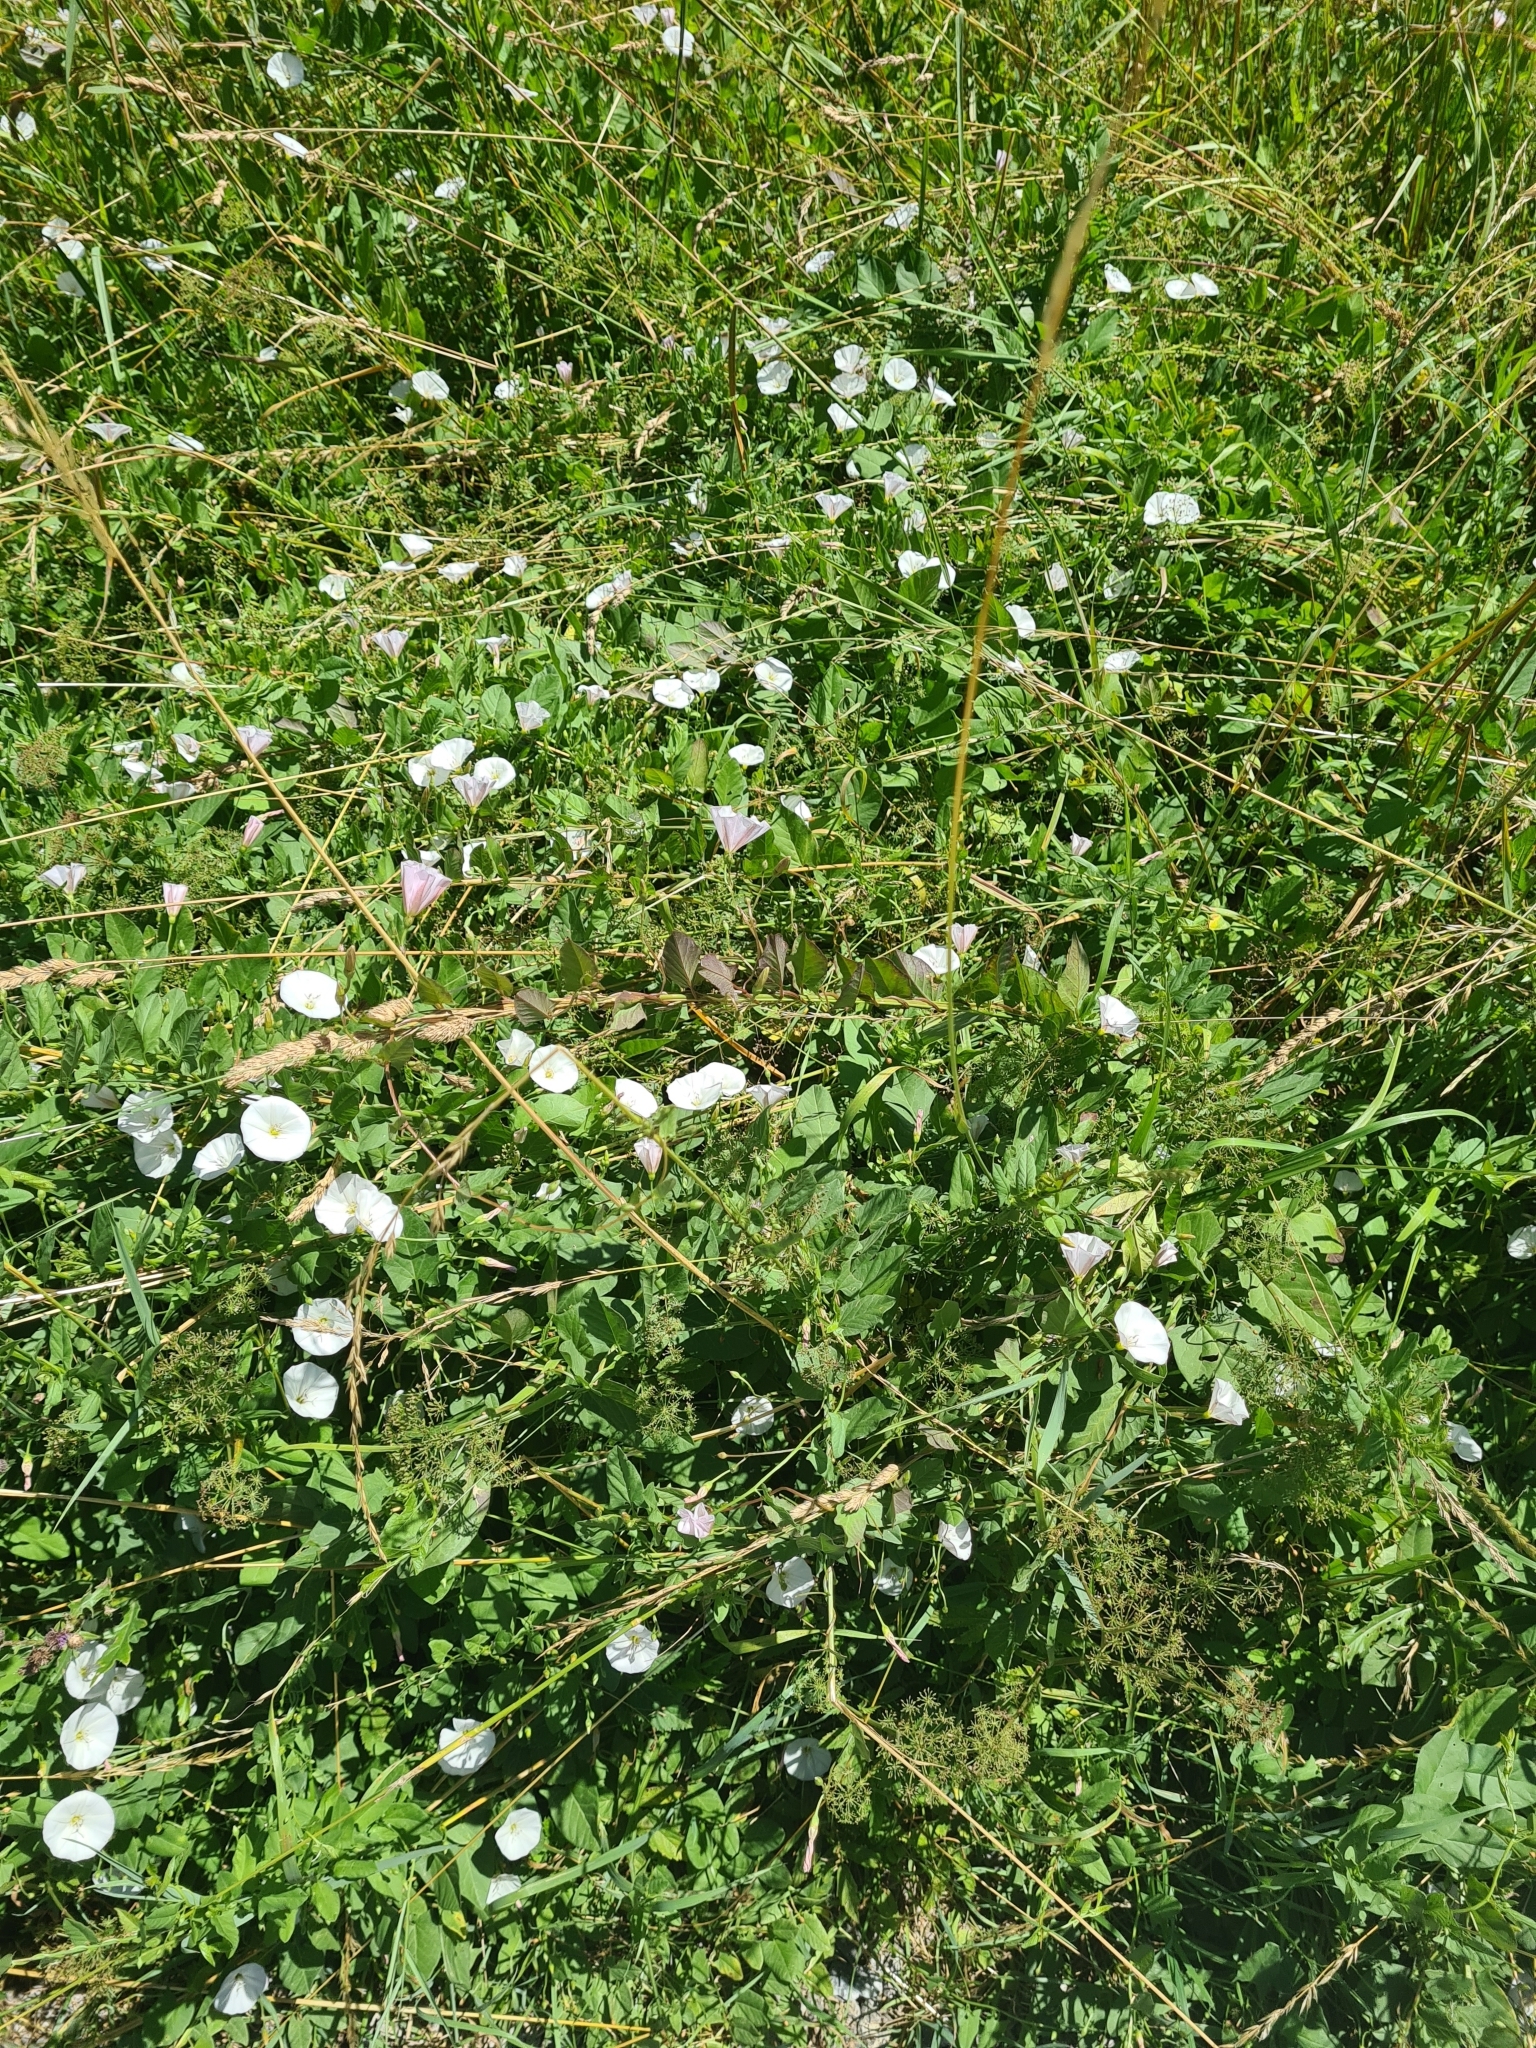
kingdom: Plantae
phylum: Tracheophyta
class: Magnoliopsida
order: Solanales
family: Convolvulaceae
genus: Convolvulus
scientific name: Convolvulus arvensis
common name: Field bindweed
